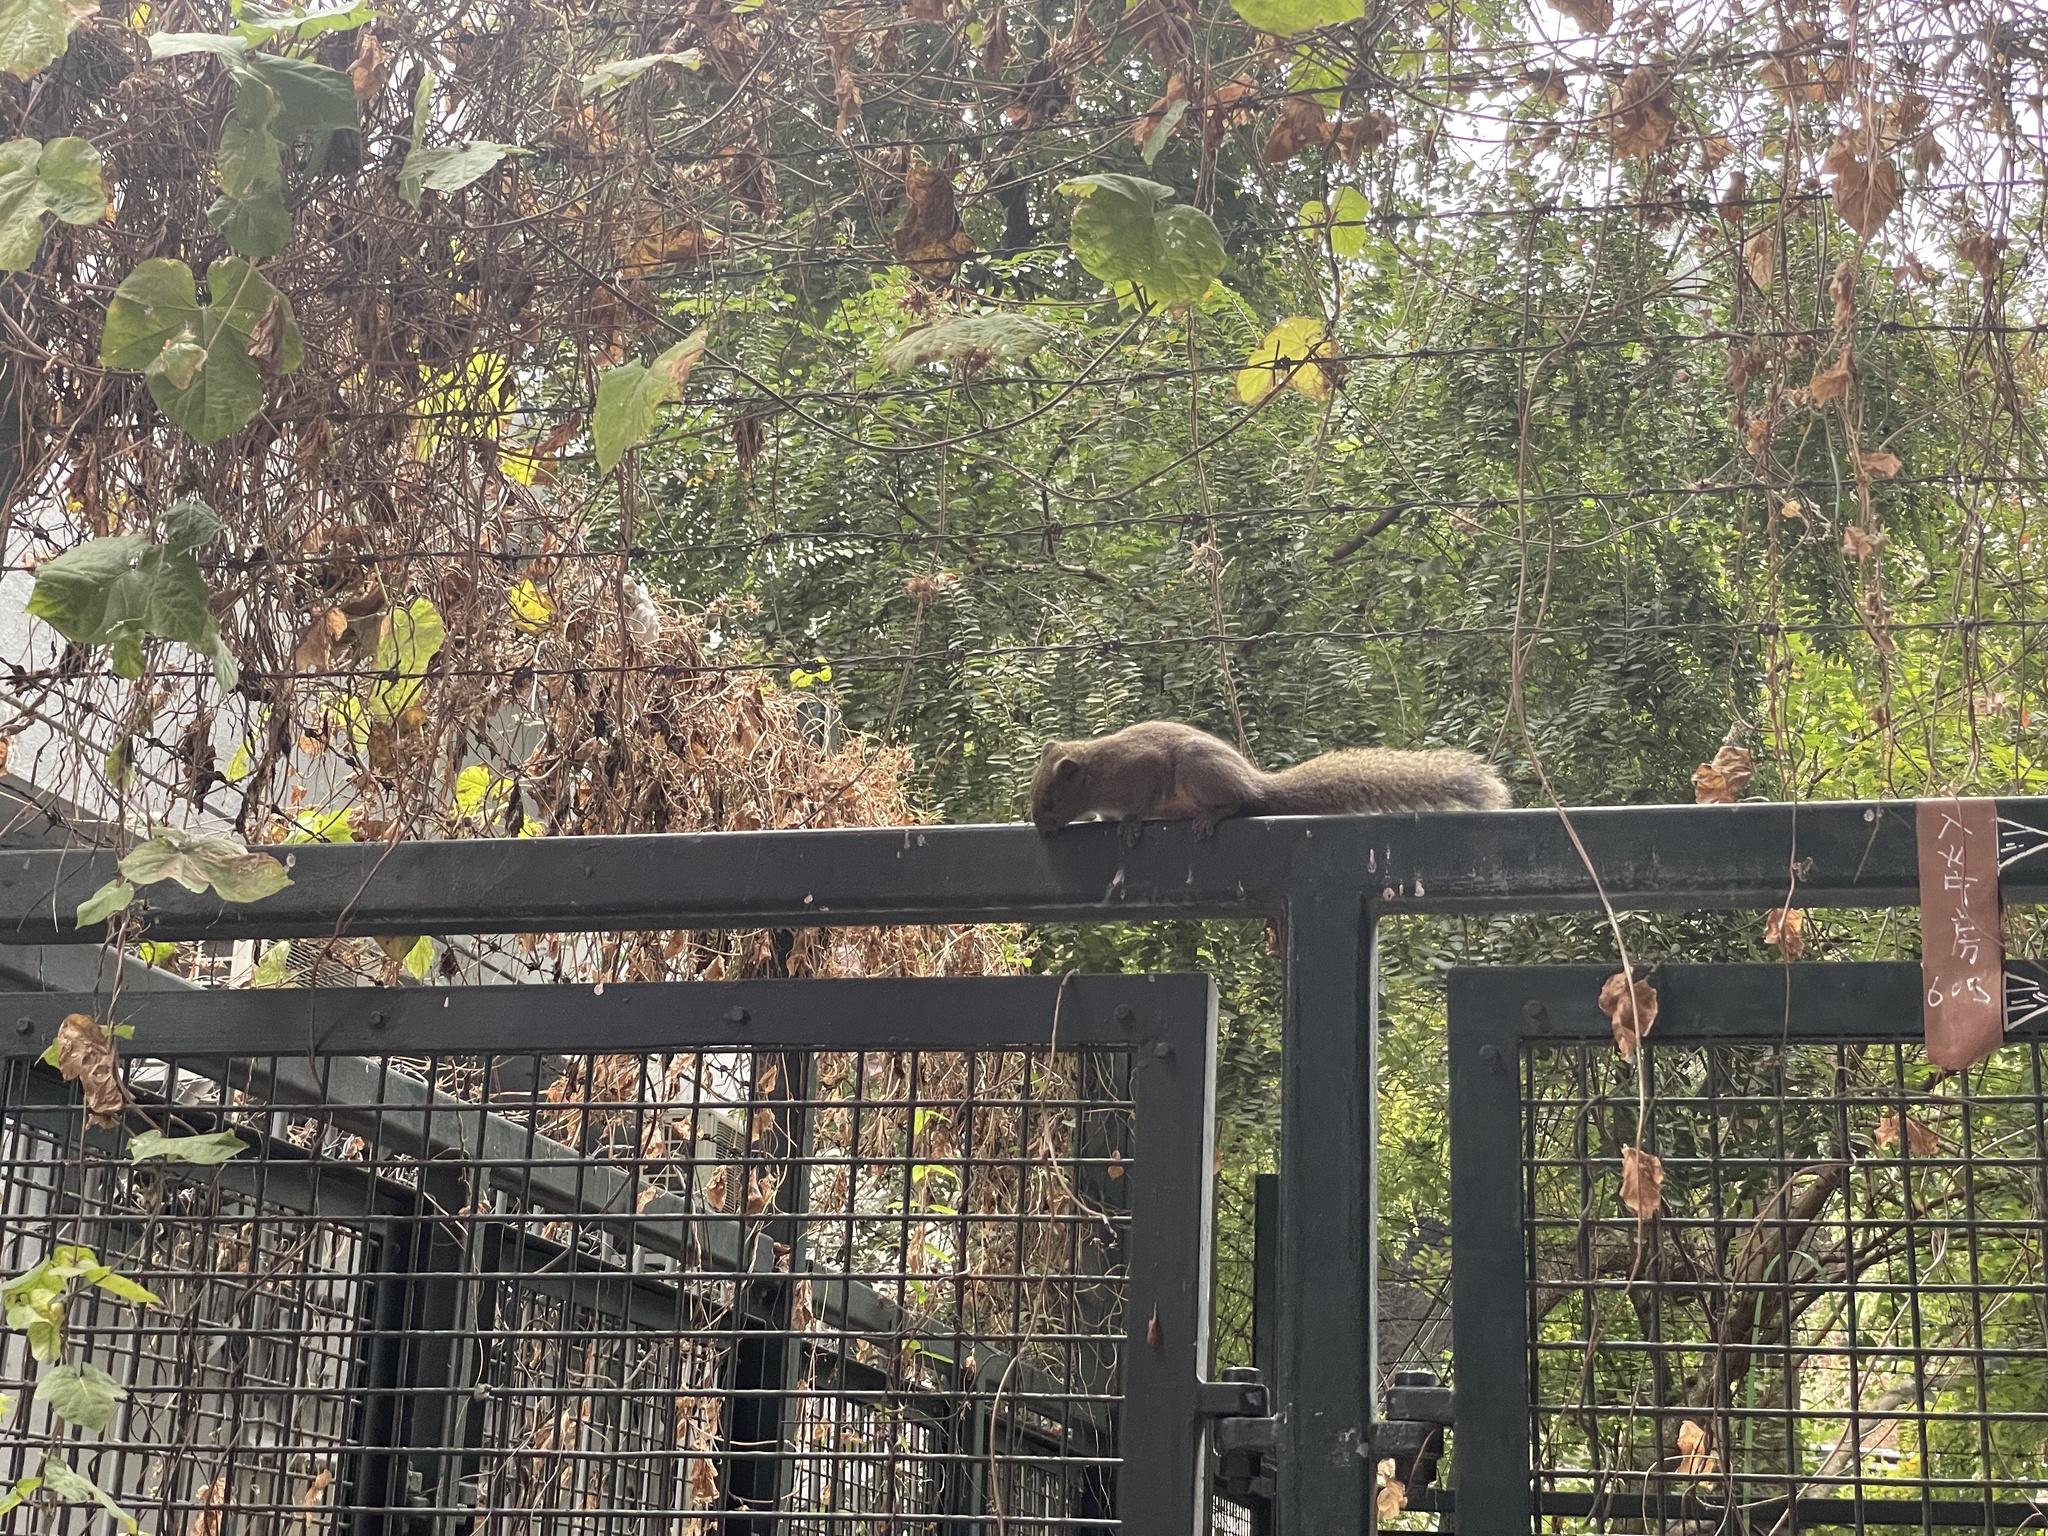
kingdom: Animalia
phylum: Chordata
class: Mammalia
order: Rodentia
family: Sciuridae
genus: Callosciurus
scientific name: Callosciurus erythraeus
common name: Pallas's squirrel
